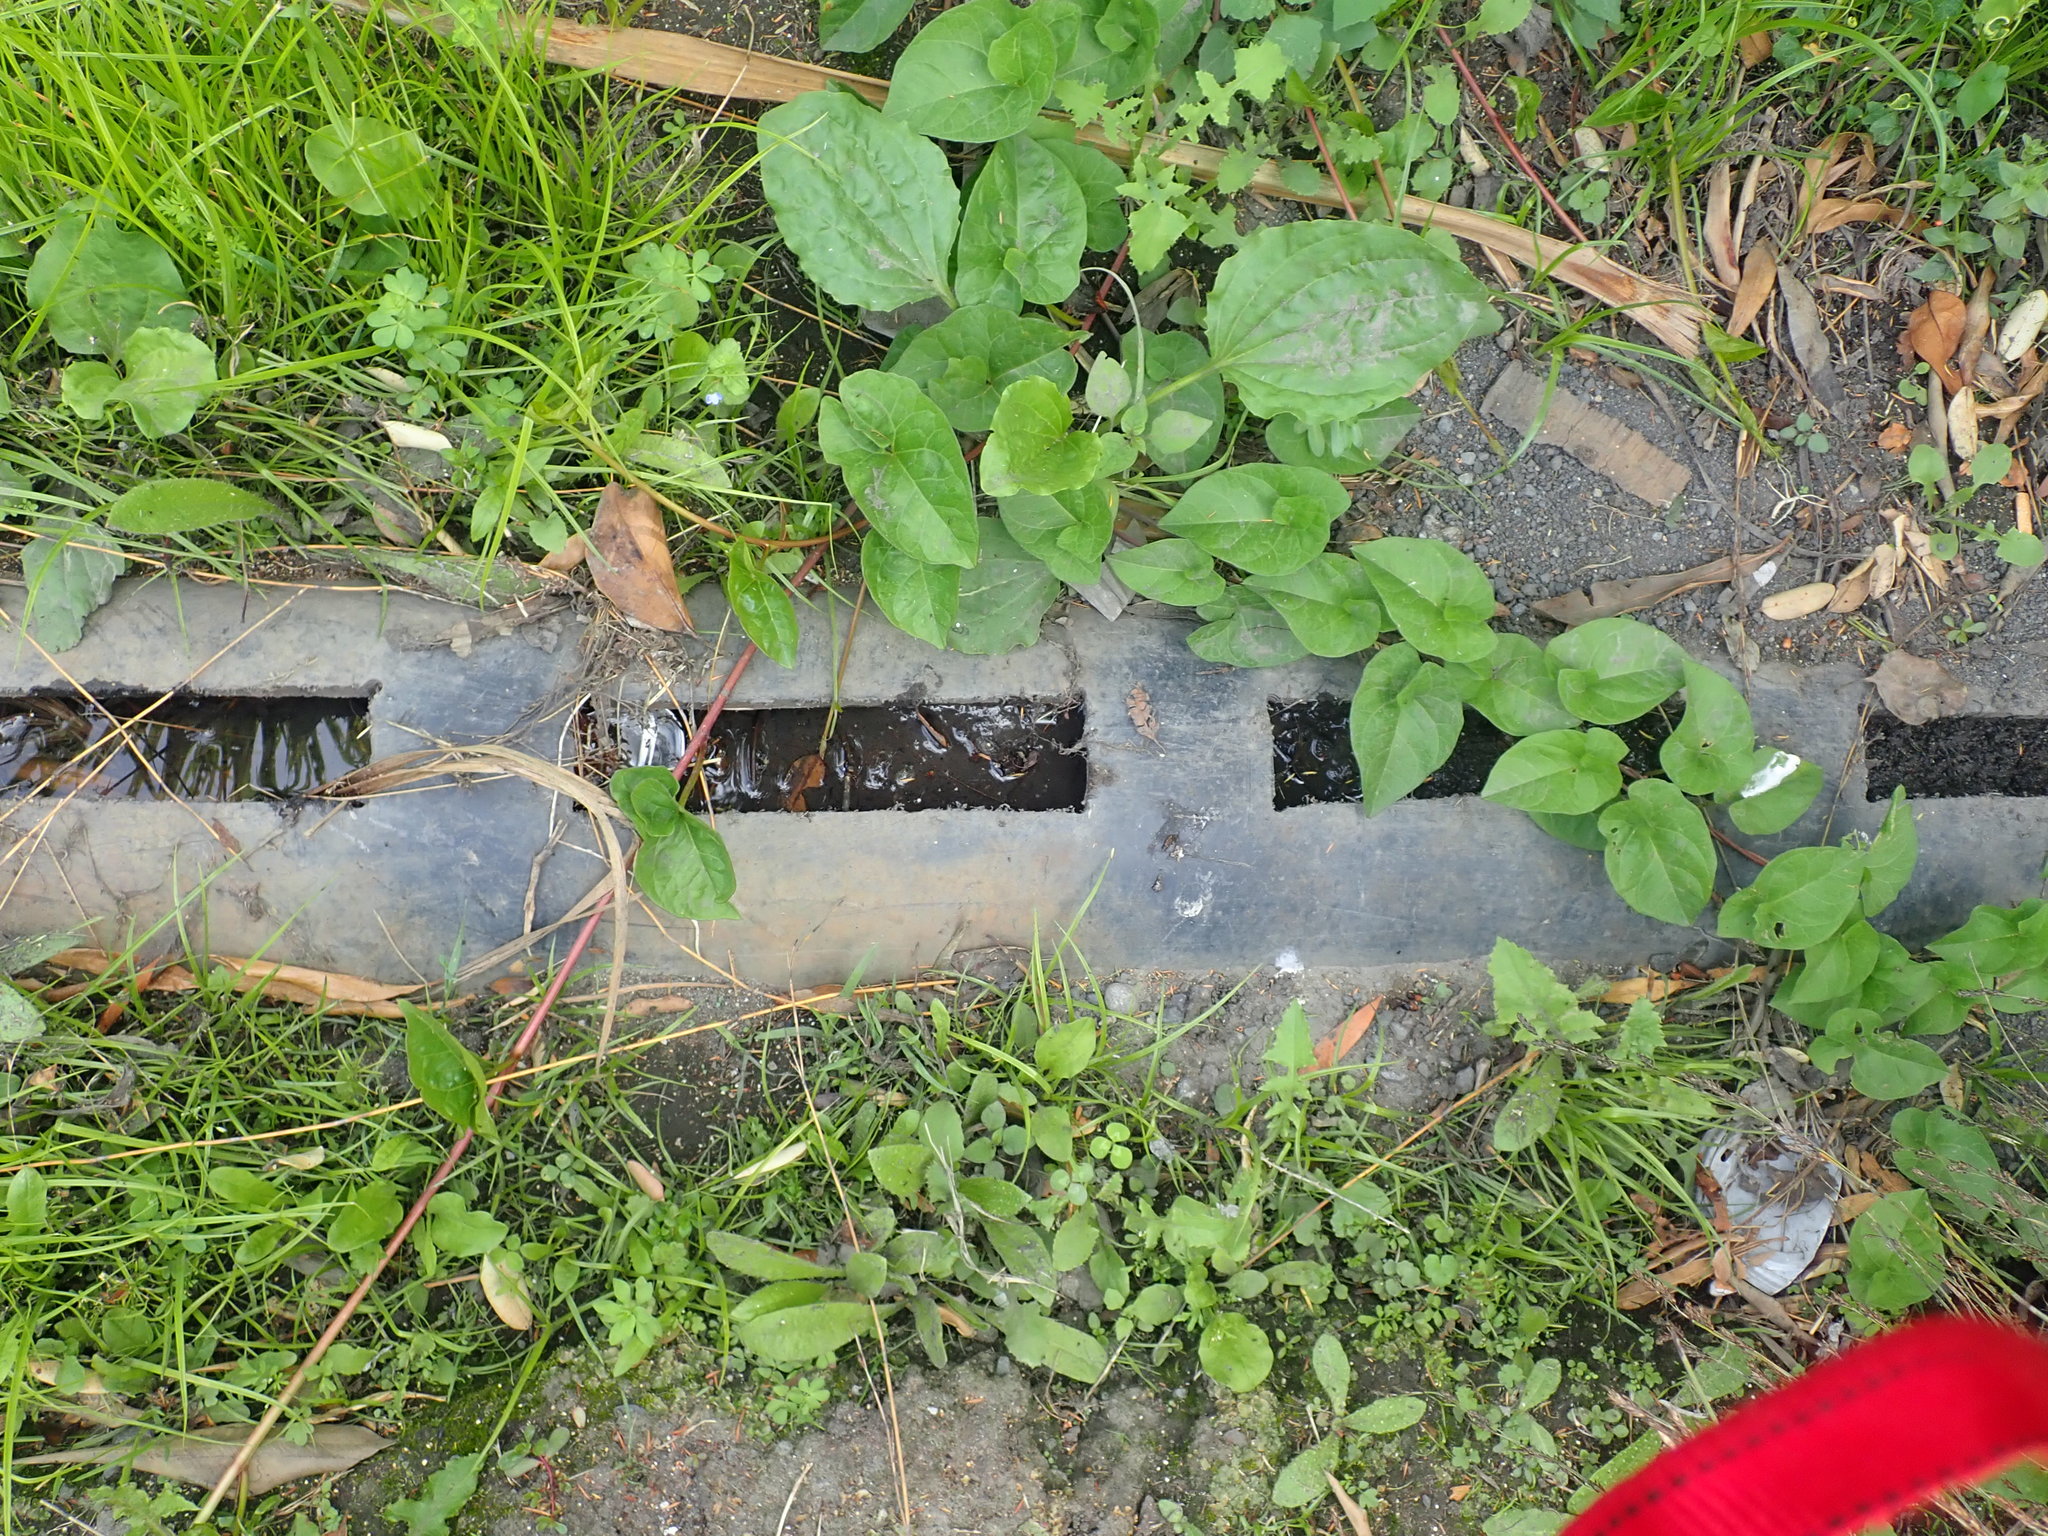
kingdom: Plantae
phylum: Tracheophyta
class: Magnoliopsida
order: Lamiales
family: Plantaginaceae
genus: Plantago
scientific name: Plantago major
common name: Common plantain
